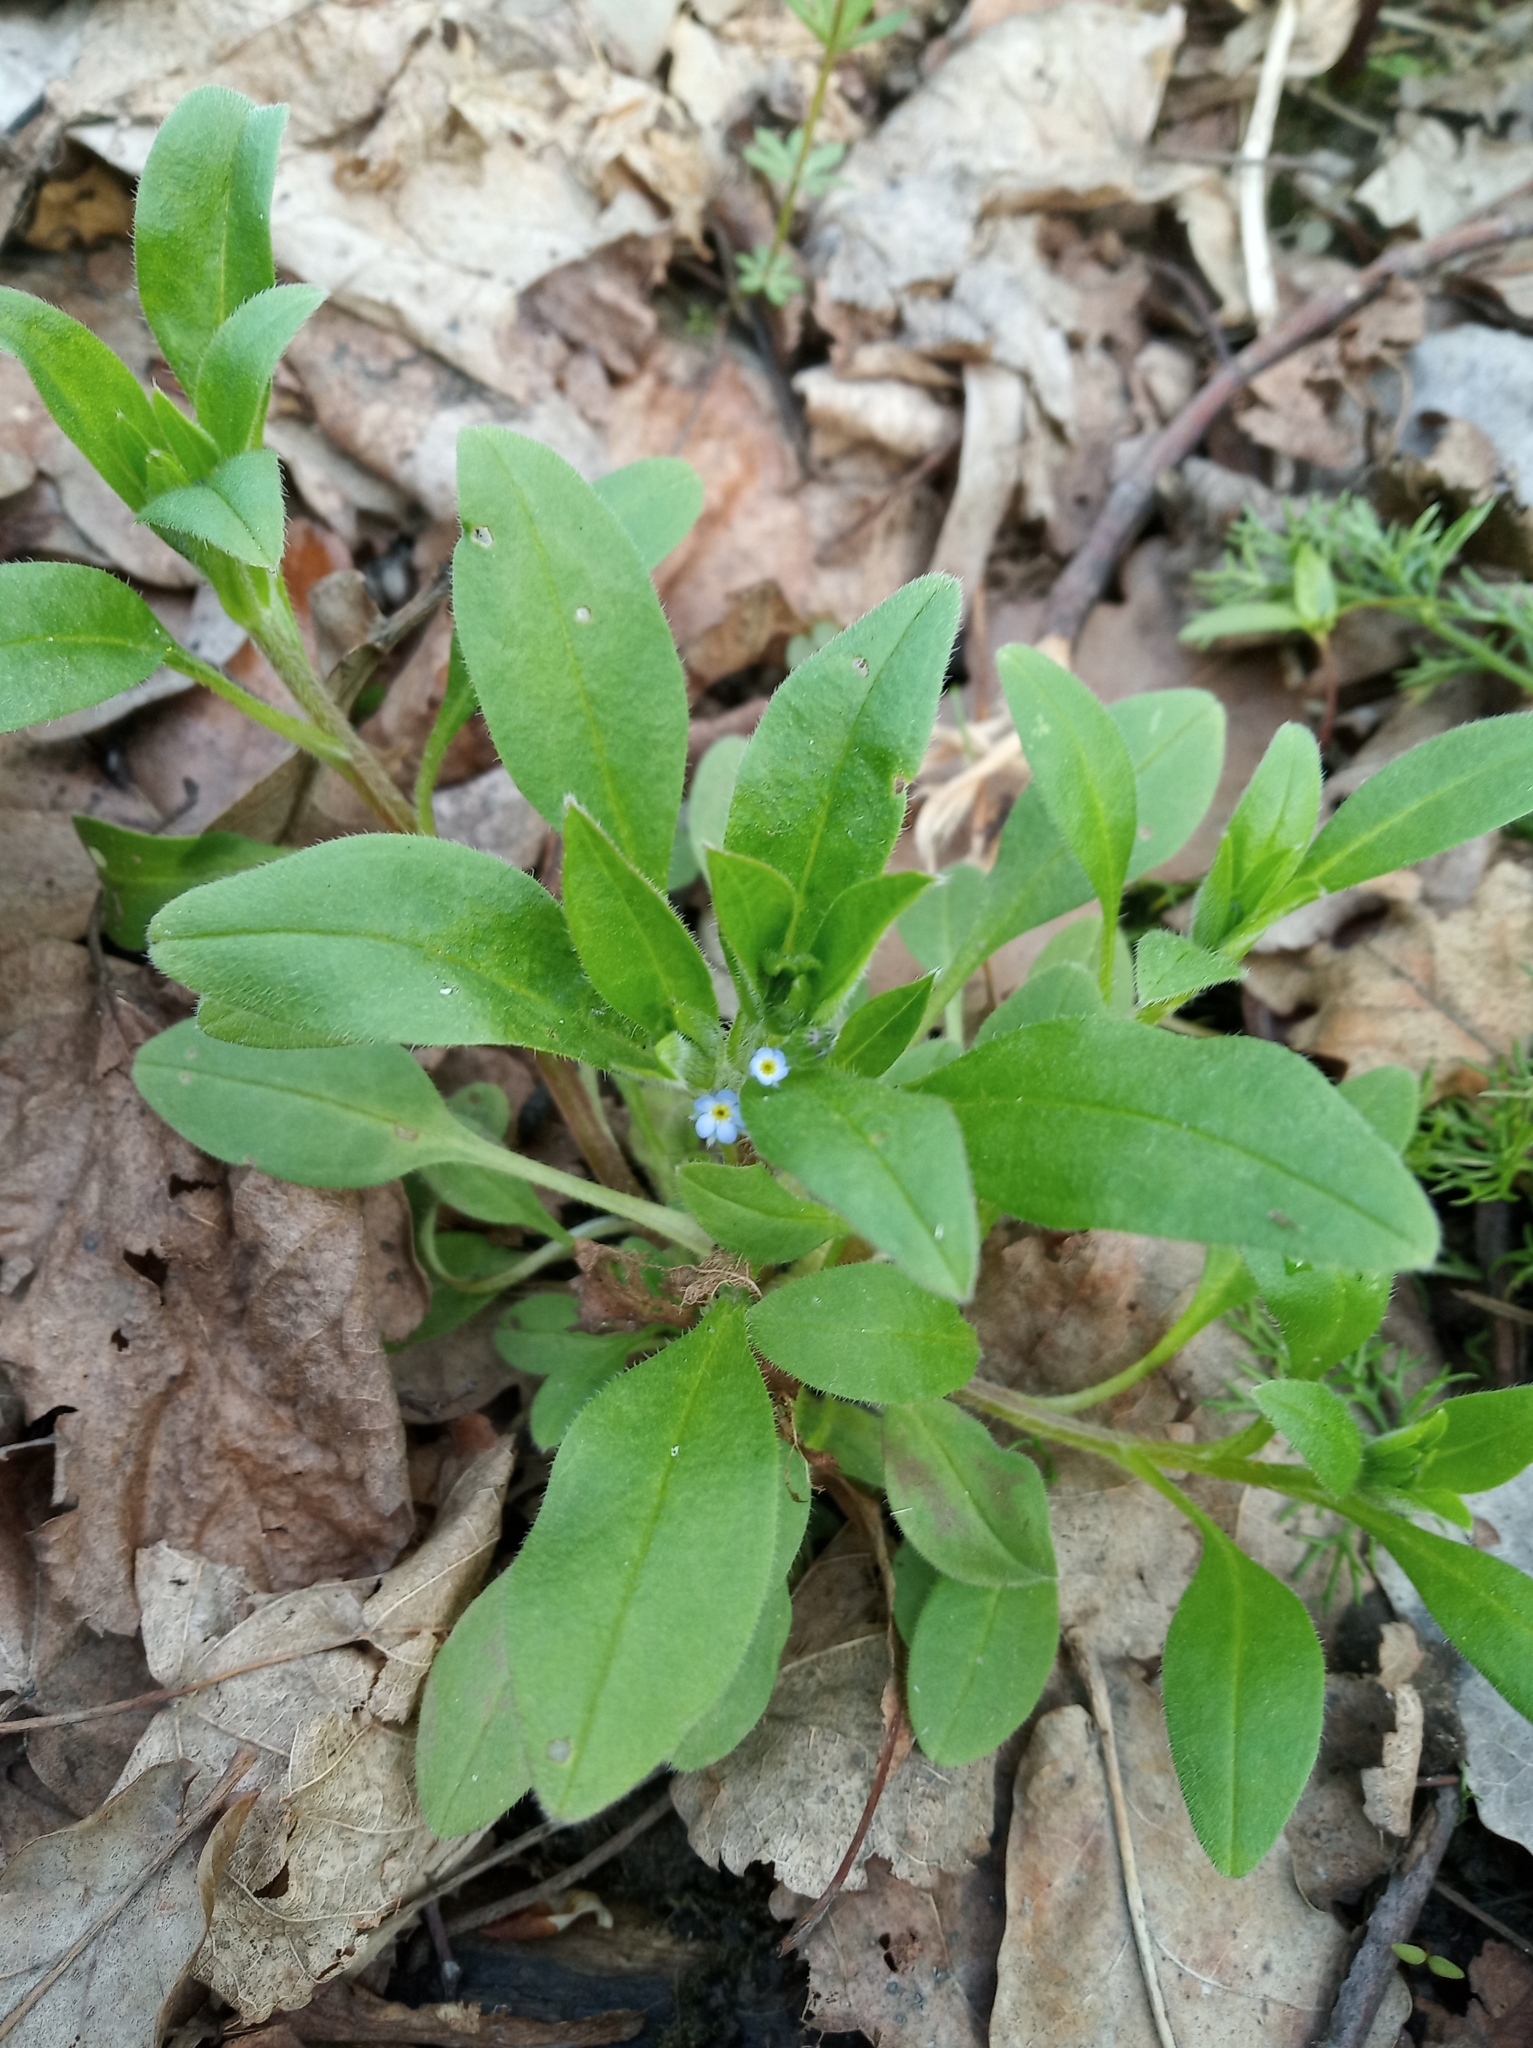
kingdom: Plantae
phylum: Tracheophyta
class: Magnoliopsida
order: Boraginales
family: Boraginaceae
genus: Myosotis
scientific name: Myosotis sparsiflora
